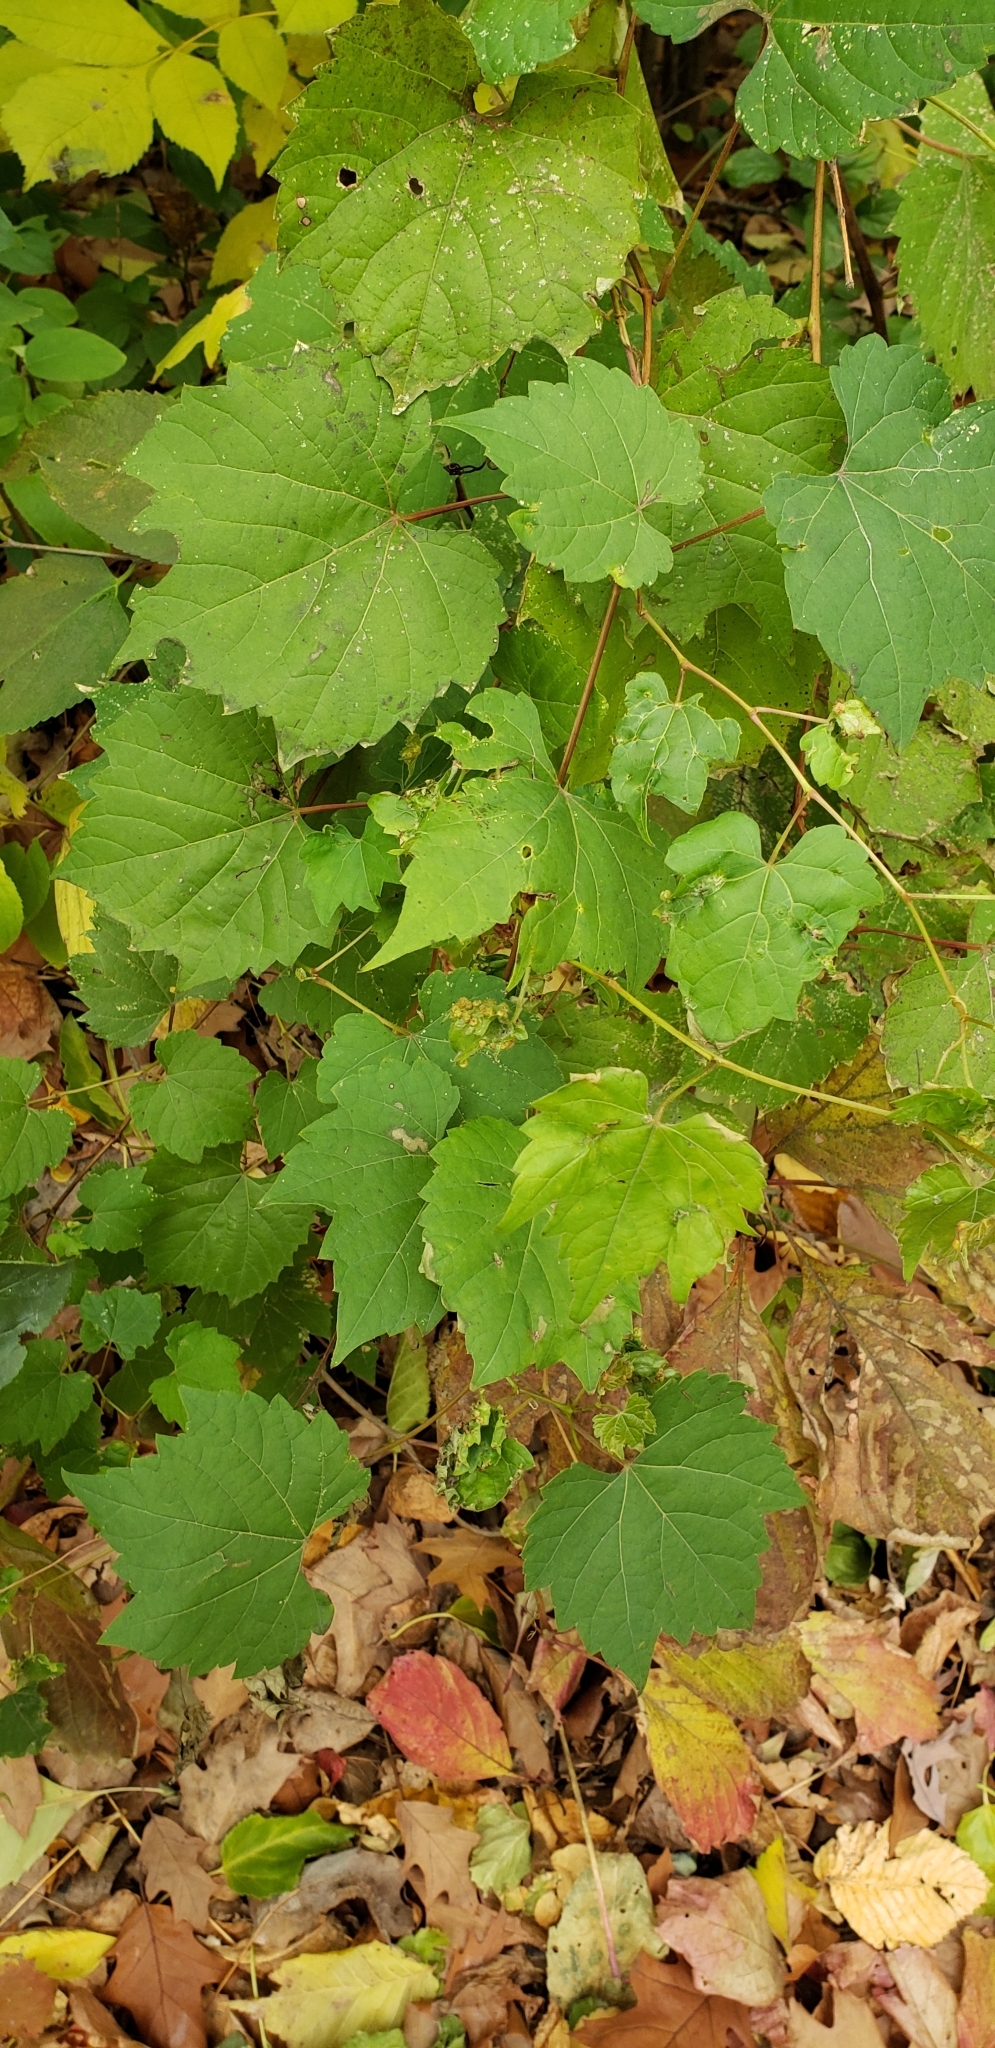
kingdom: Animalia
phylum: Arthropoda
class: Insecta
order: Hemiptera
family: Phylloxeridae
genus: Daktulosphaira
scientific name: Daktulosphaira vitifoliae
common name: Grape phylloxera
